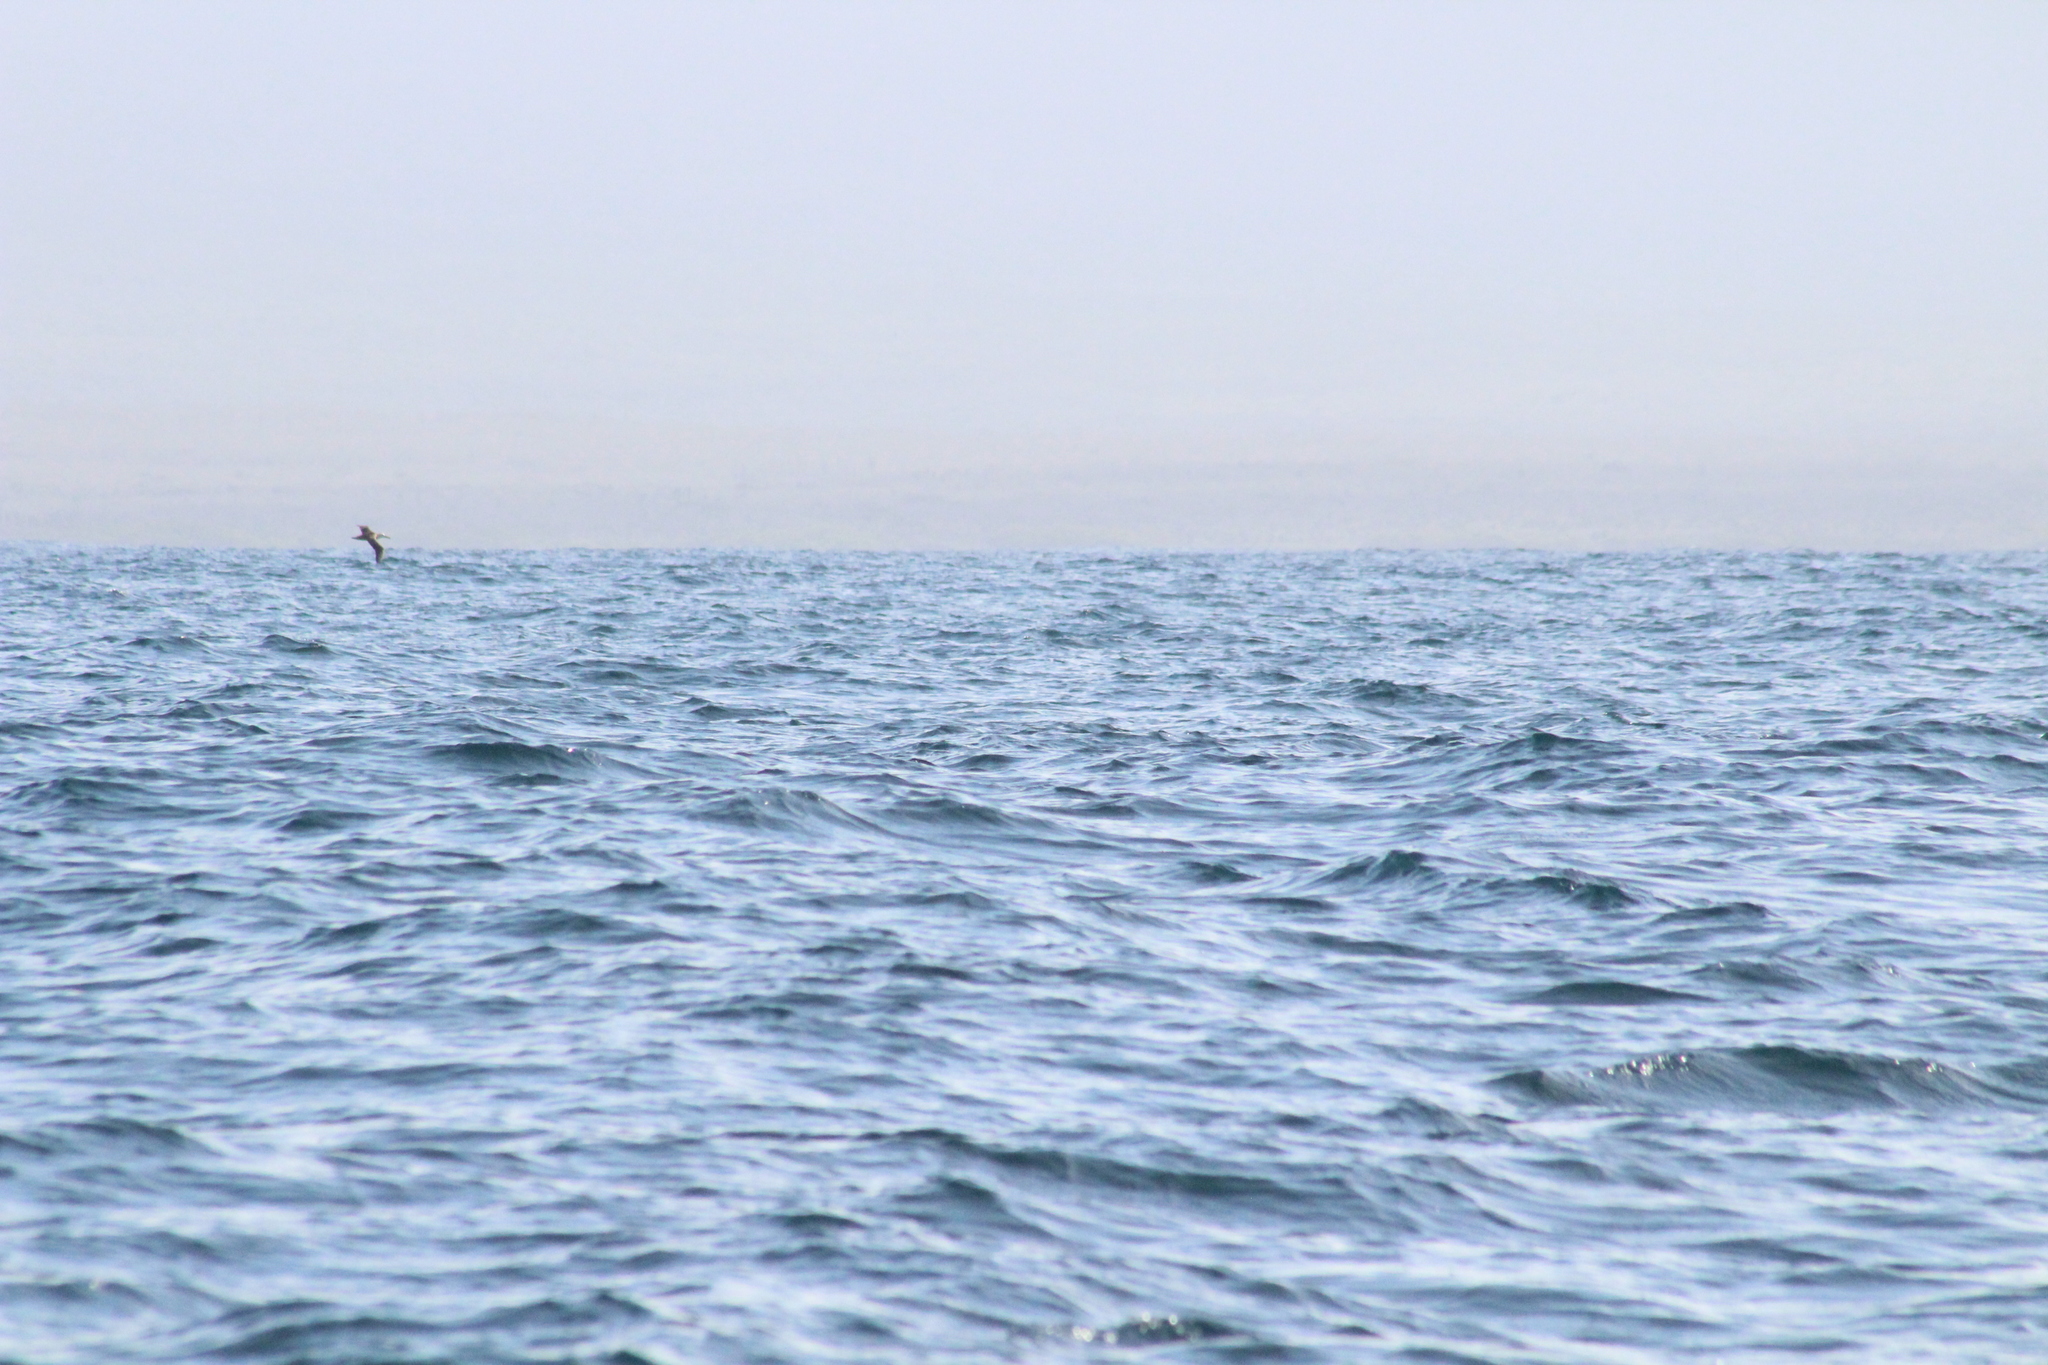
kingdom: Animalia
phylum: Chordata
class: Aves
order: Procellariiformes
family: Diomedeidae
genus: Phoebastria
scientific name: Phoebastria irrorata
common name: Waved albatross
